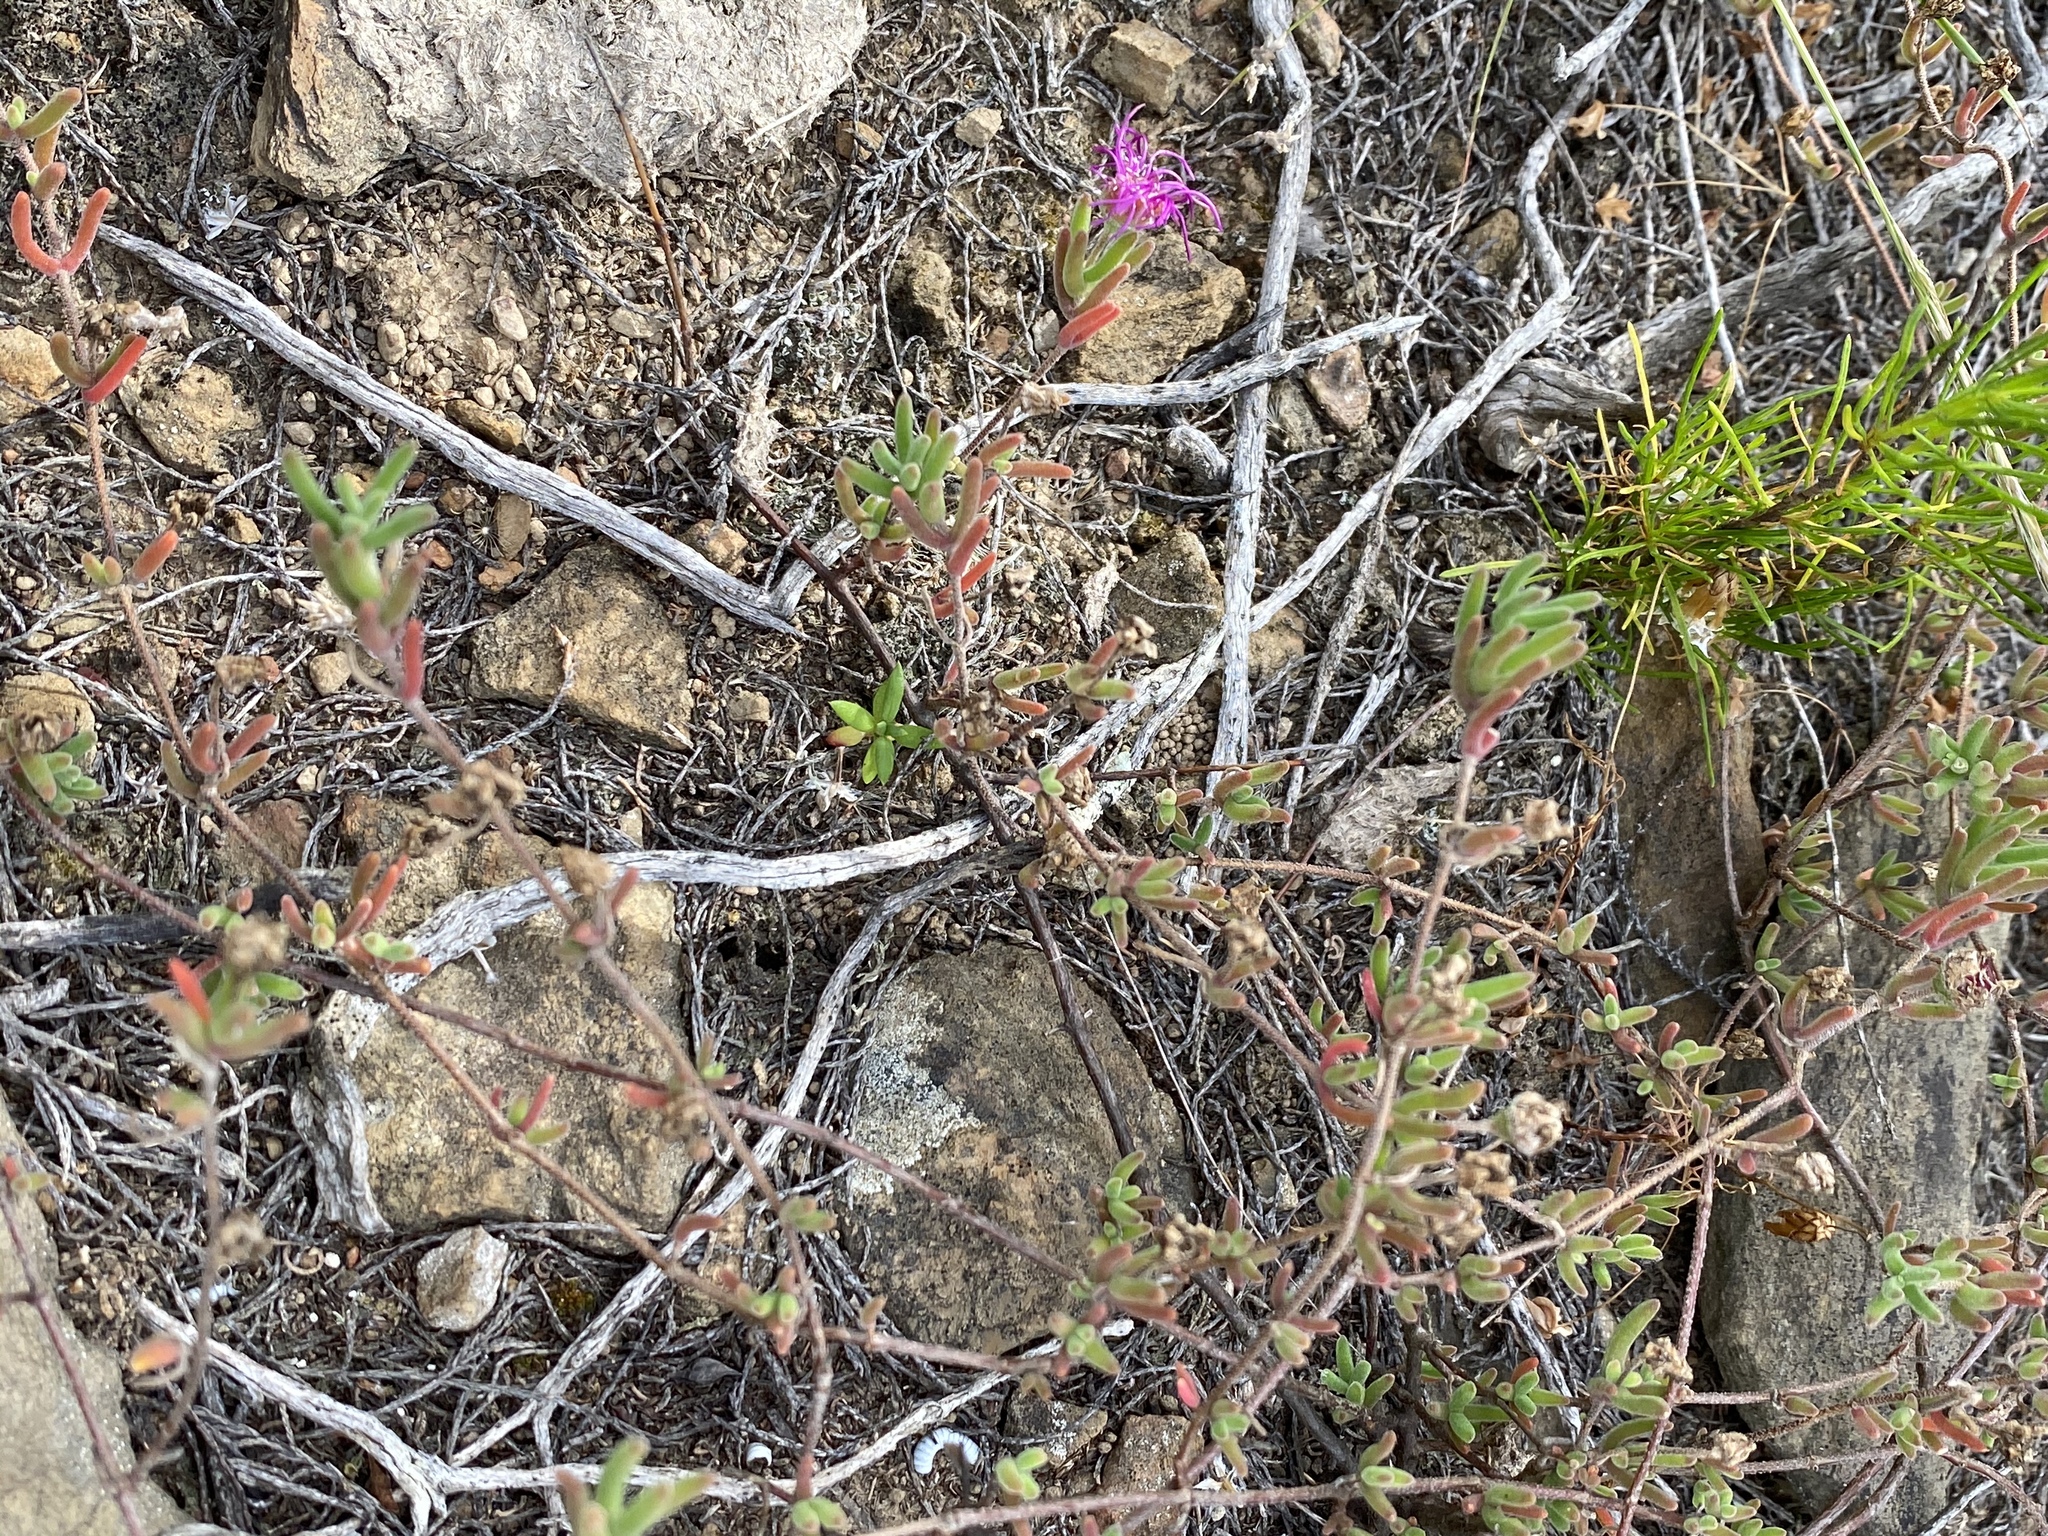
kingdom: Plantae
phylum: Tracheophyta
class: Magnoliopsida
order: Caryophyllales
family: Aizoaceae
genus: Drosanthemum
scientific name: Drosanthemum ambiguum
